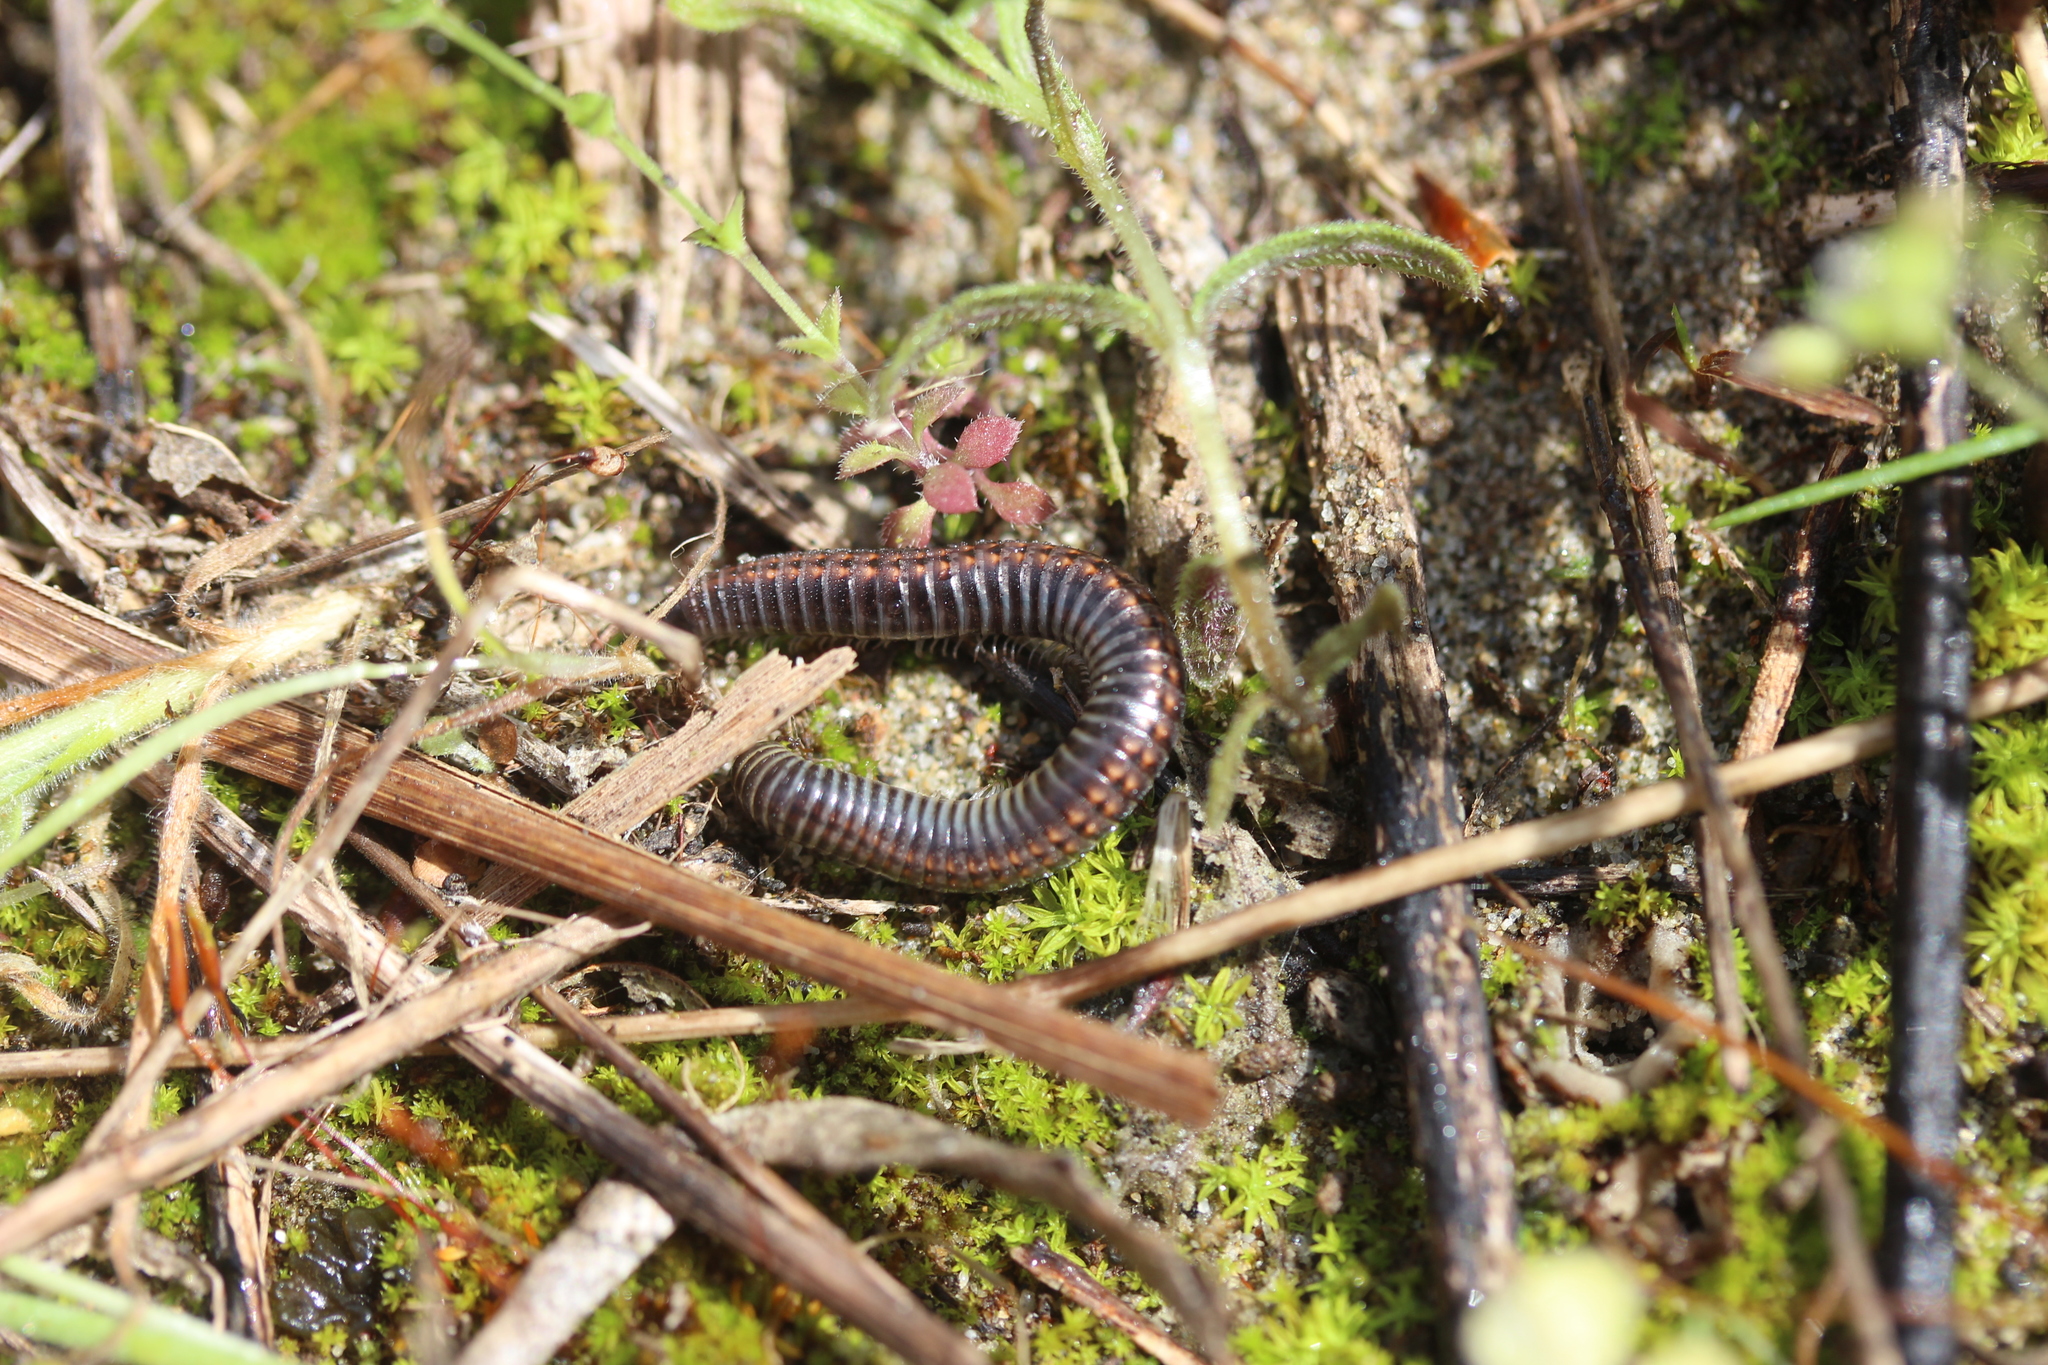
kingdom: Animalia
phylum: Arthropoda
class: Diplopoda
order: Julida
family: Julidae
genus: Ommatoiulus
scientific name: Ommatoiulus sabulosus
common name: Striped millipede
